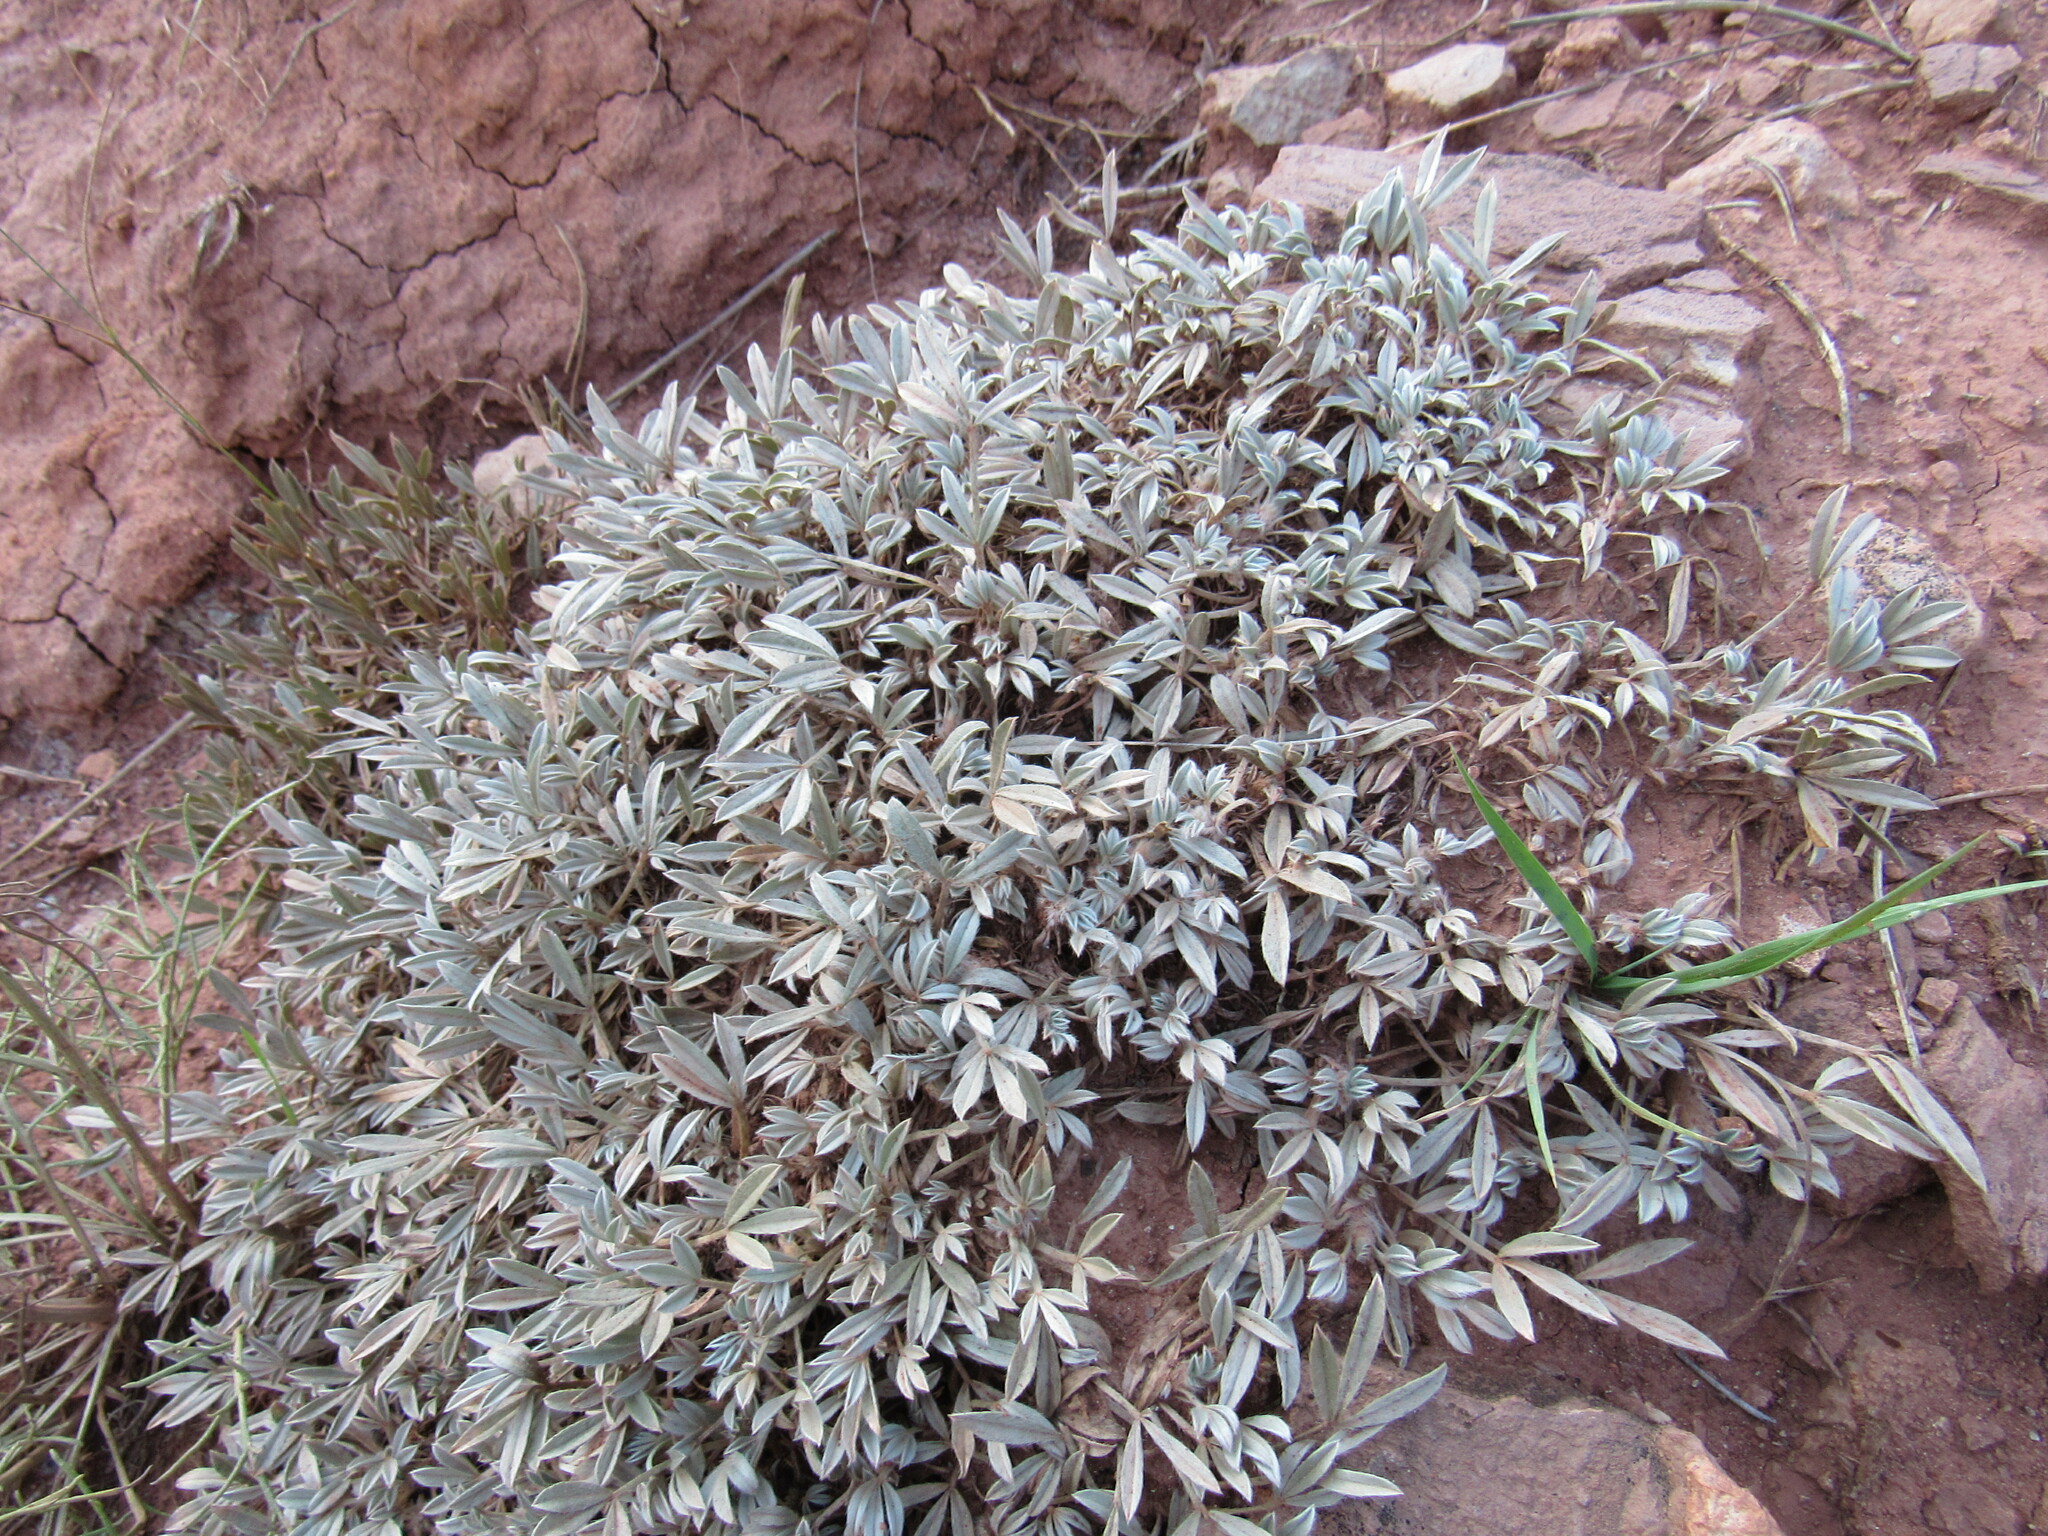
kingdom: Plantae
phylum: Tracheophyta
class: Magnoliopsida
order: Fabales
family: Fabaceae
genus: Astragalus
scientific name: Astragalus tridactylicus
